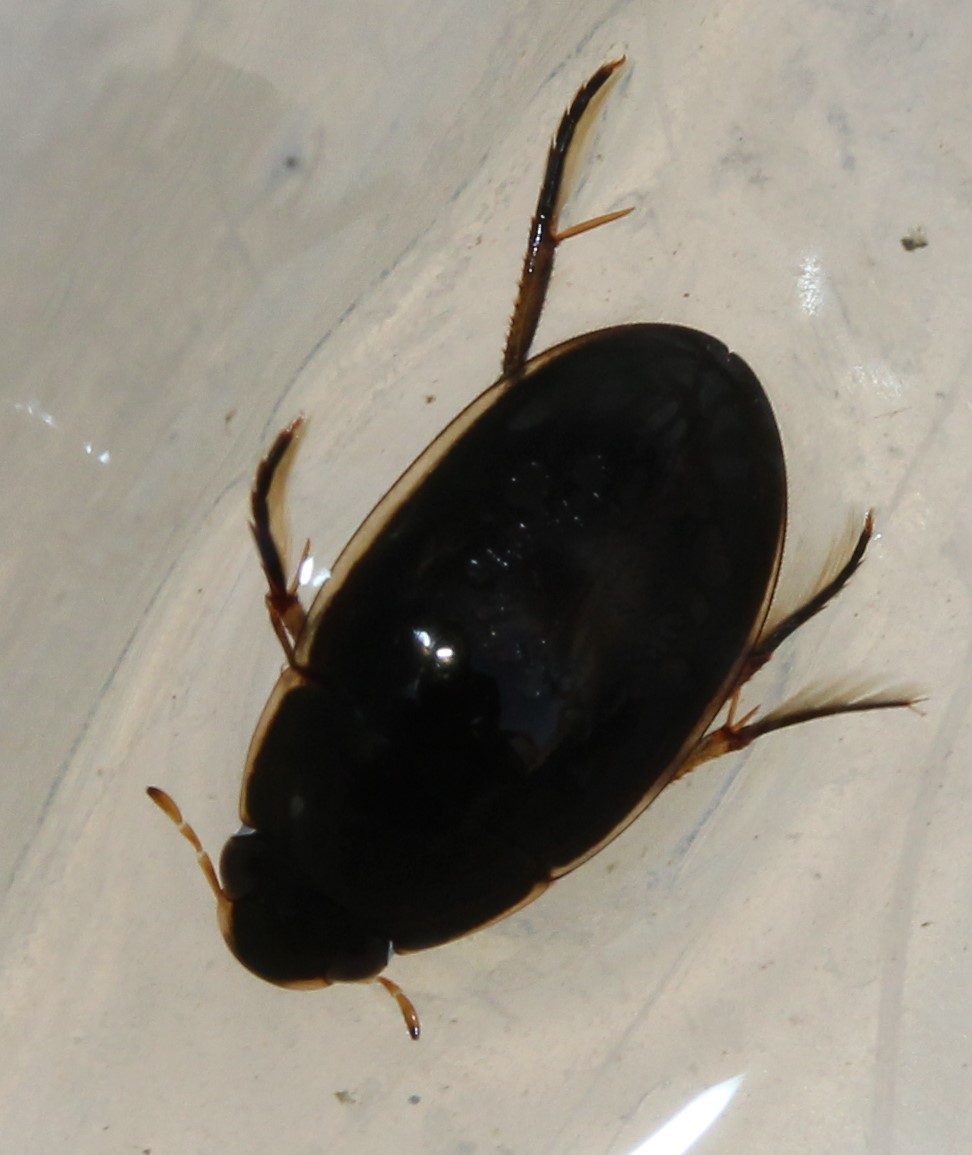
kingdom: Animalia
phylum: Arthropoda
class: Insecta
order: Coleoptera
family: Hydrophilidae
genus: Tropisternus
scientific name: Tropisternus lateralis
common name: Lateral-banded water scavenger beetle
